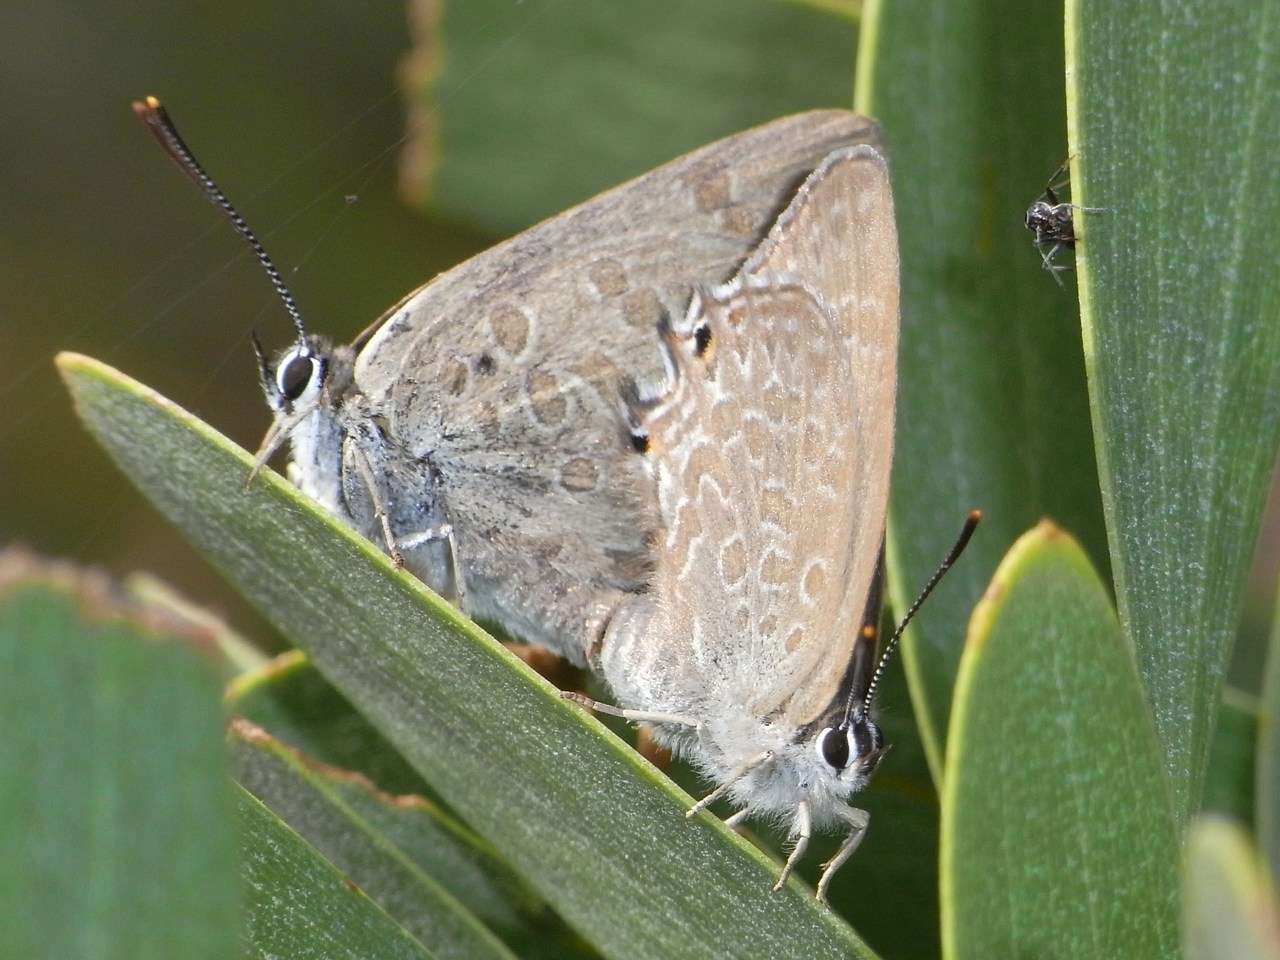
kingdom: Animalia
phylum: Arthropoda
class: Insecta
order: Lepidoptera
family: Lycaenidae
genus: Jalmenus
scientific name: Jalmenus icilius
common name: Amethyst hairstreak
